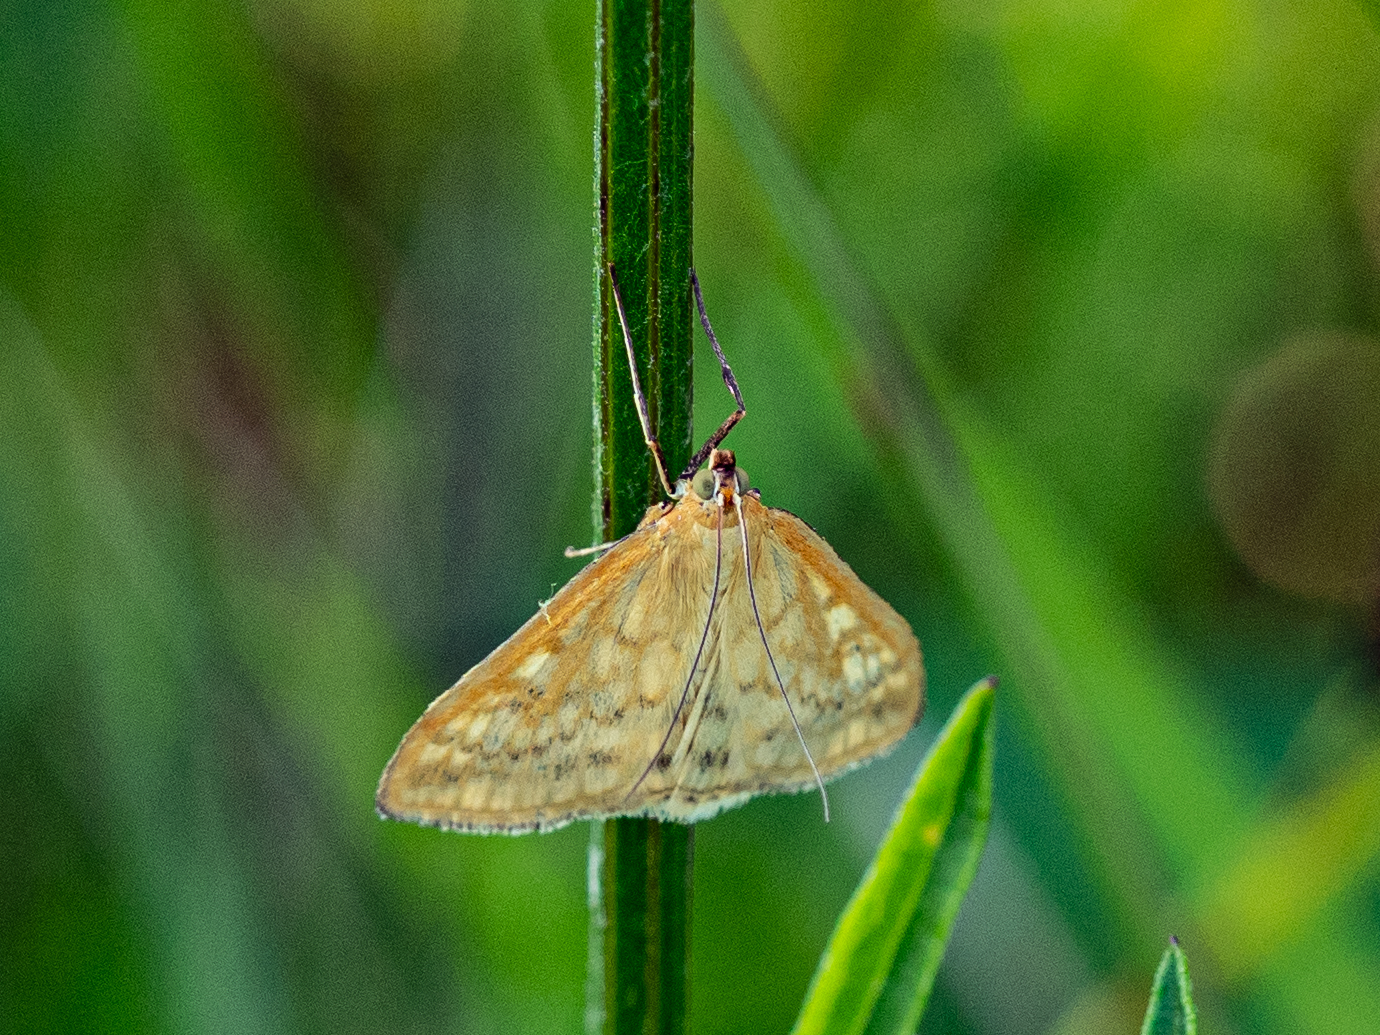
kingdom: Animalia
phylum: Arthropoda
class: Insecta
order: Lepidoptera
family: Crambidae
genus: Sitochroa
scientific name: Sitochroa verticalis
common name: Lesser pearl
